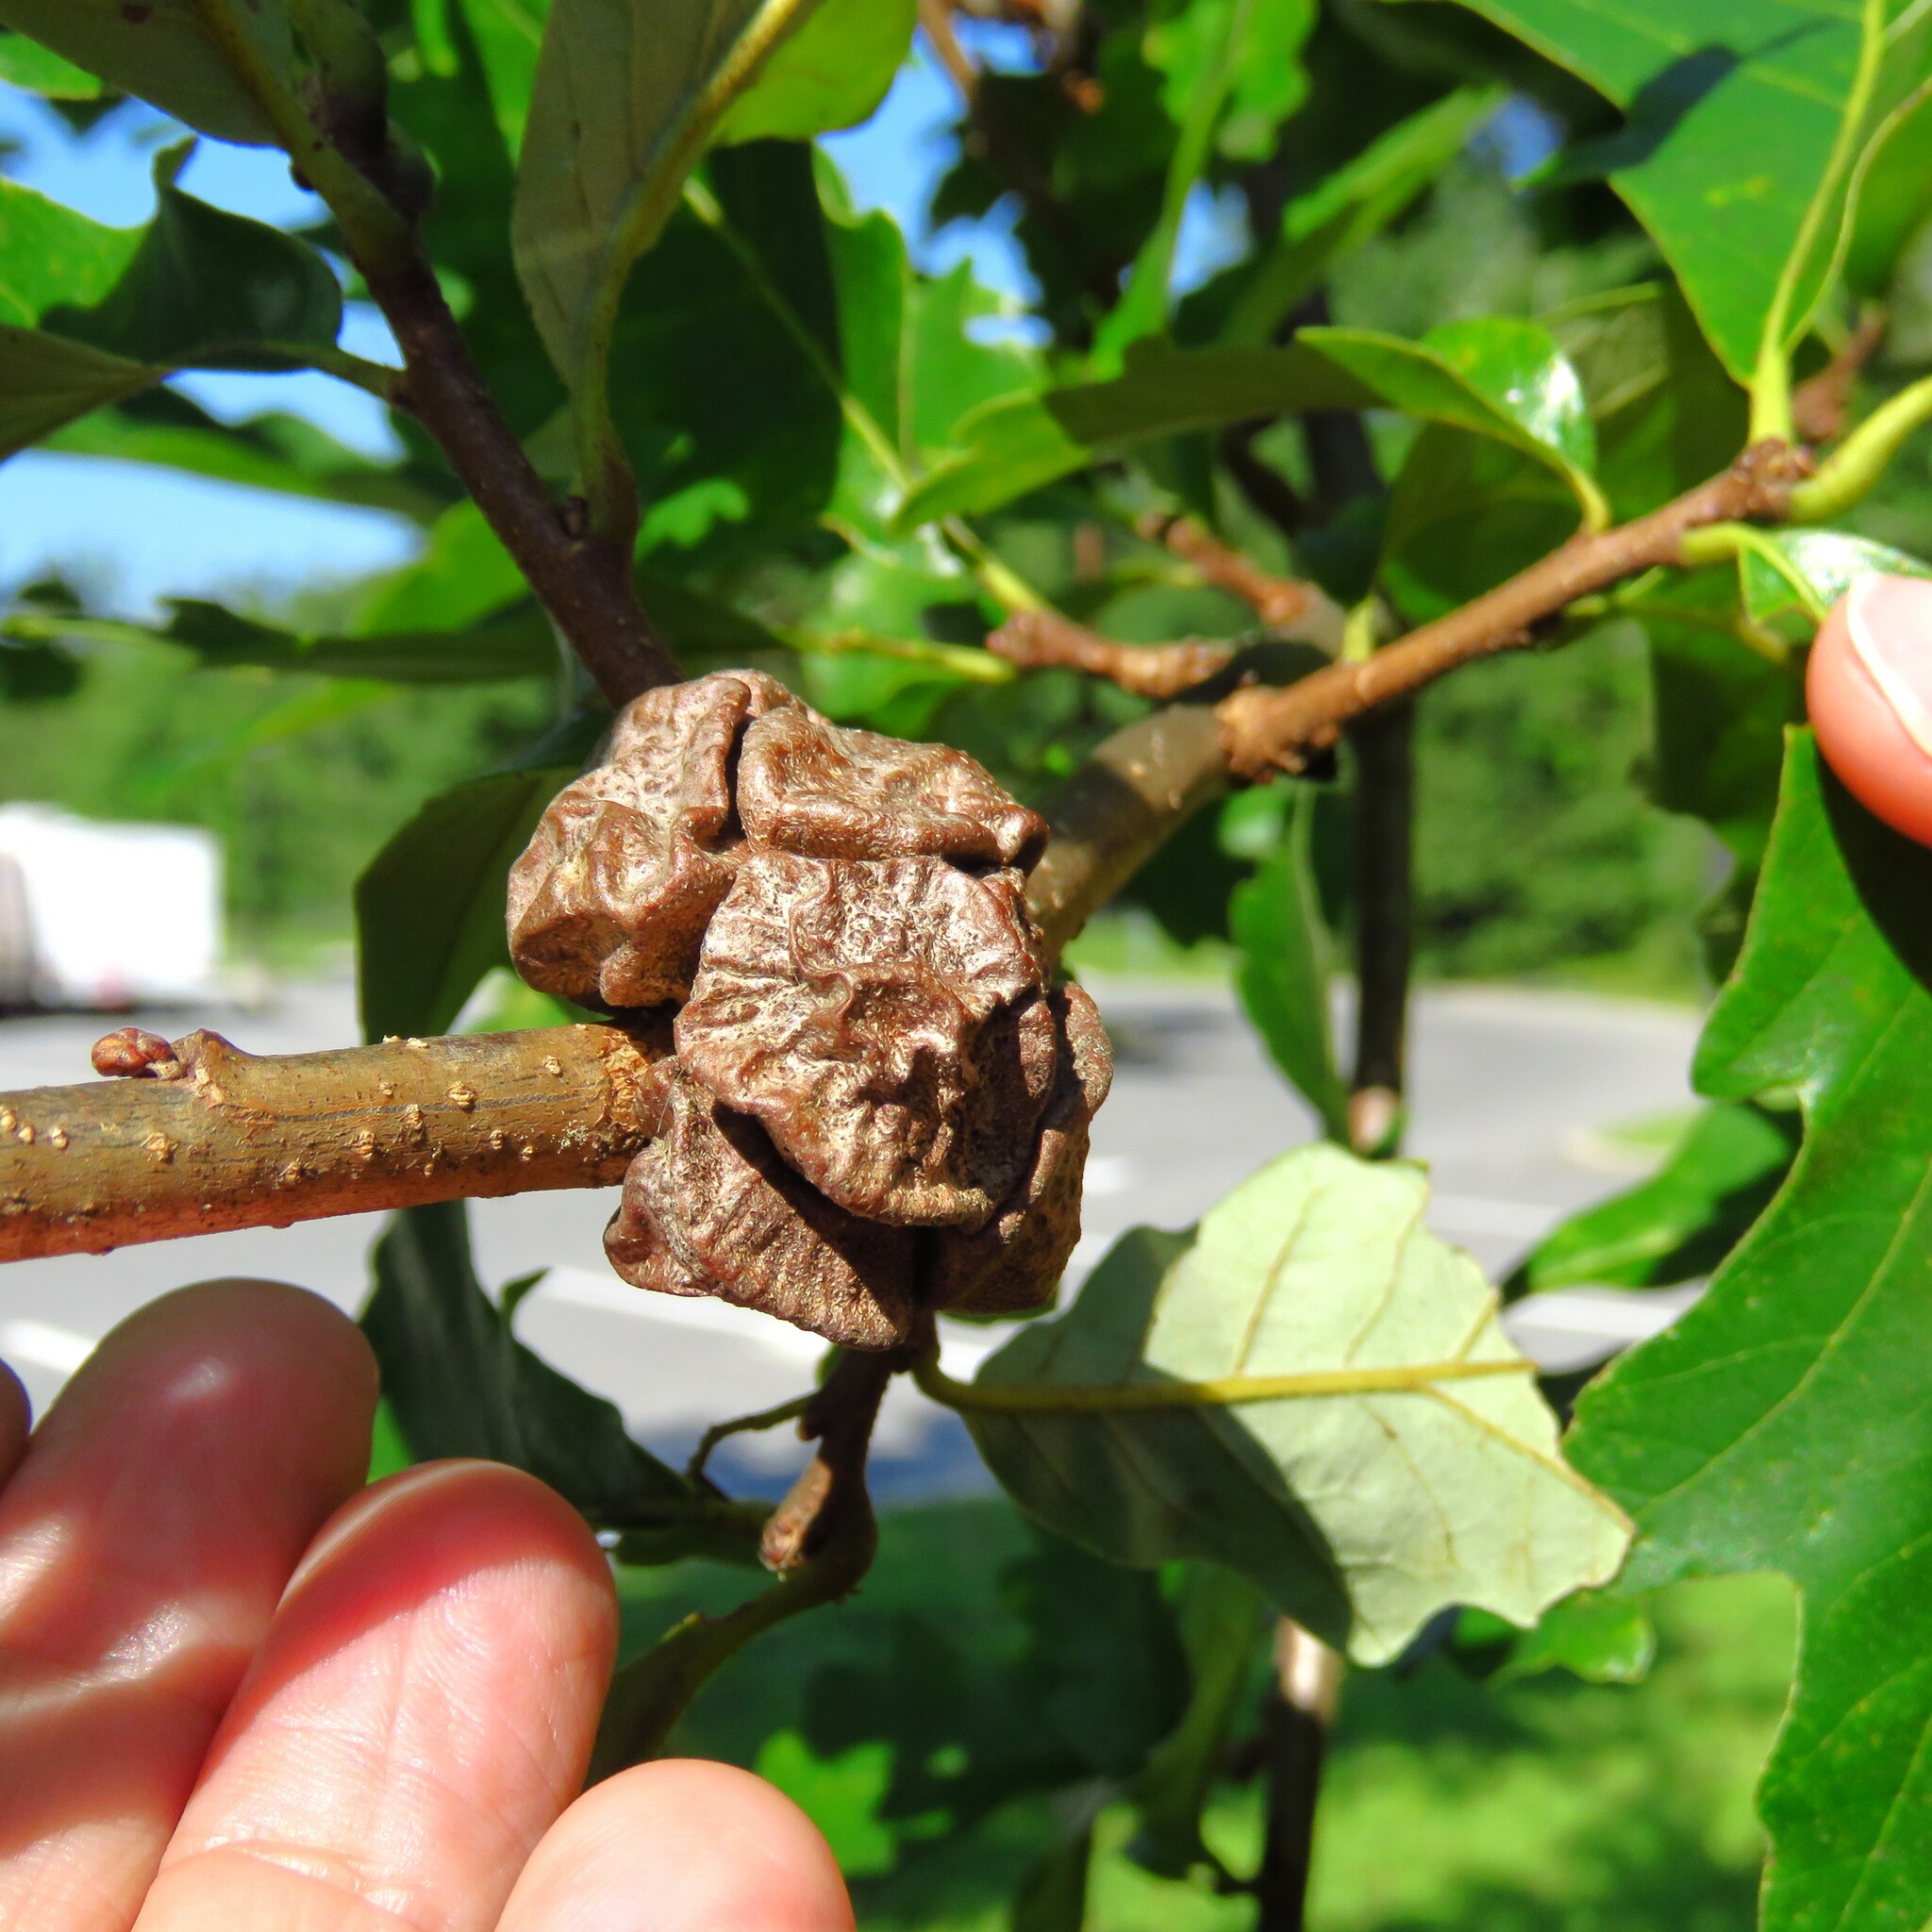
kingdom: Animalia
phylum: Arthropoda
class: Insecta
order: Hymenoptera
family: Cynipidae
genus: Andricus
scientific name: Andricus
